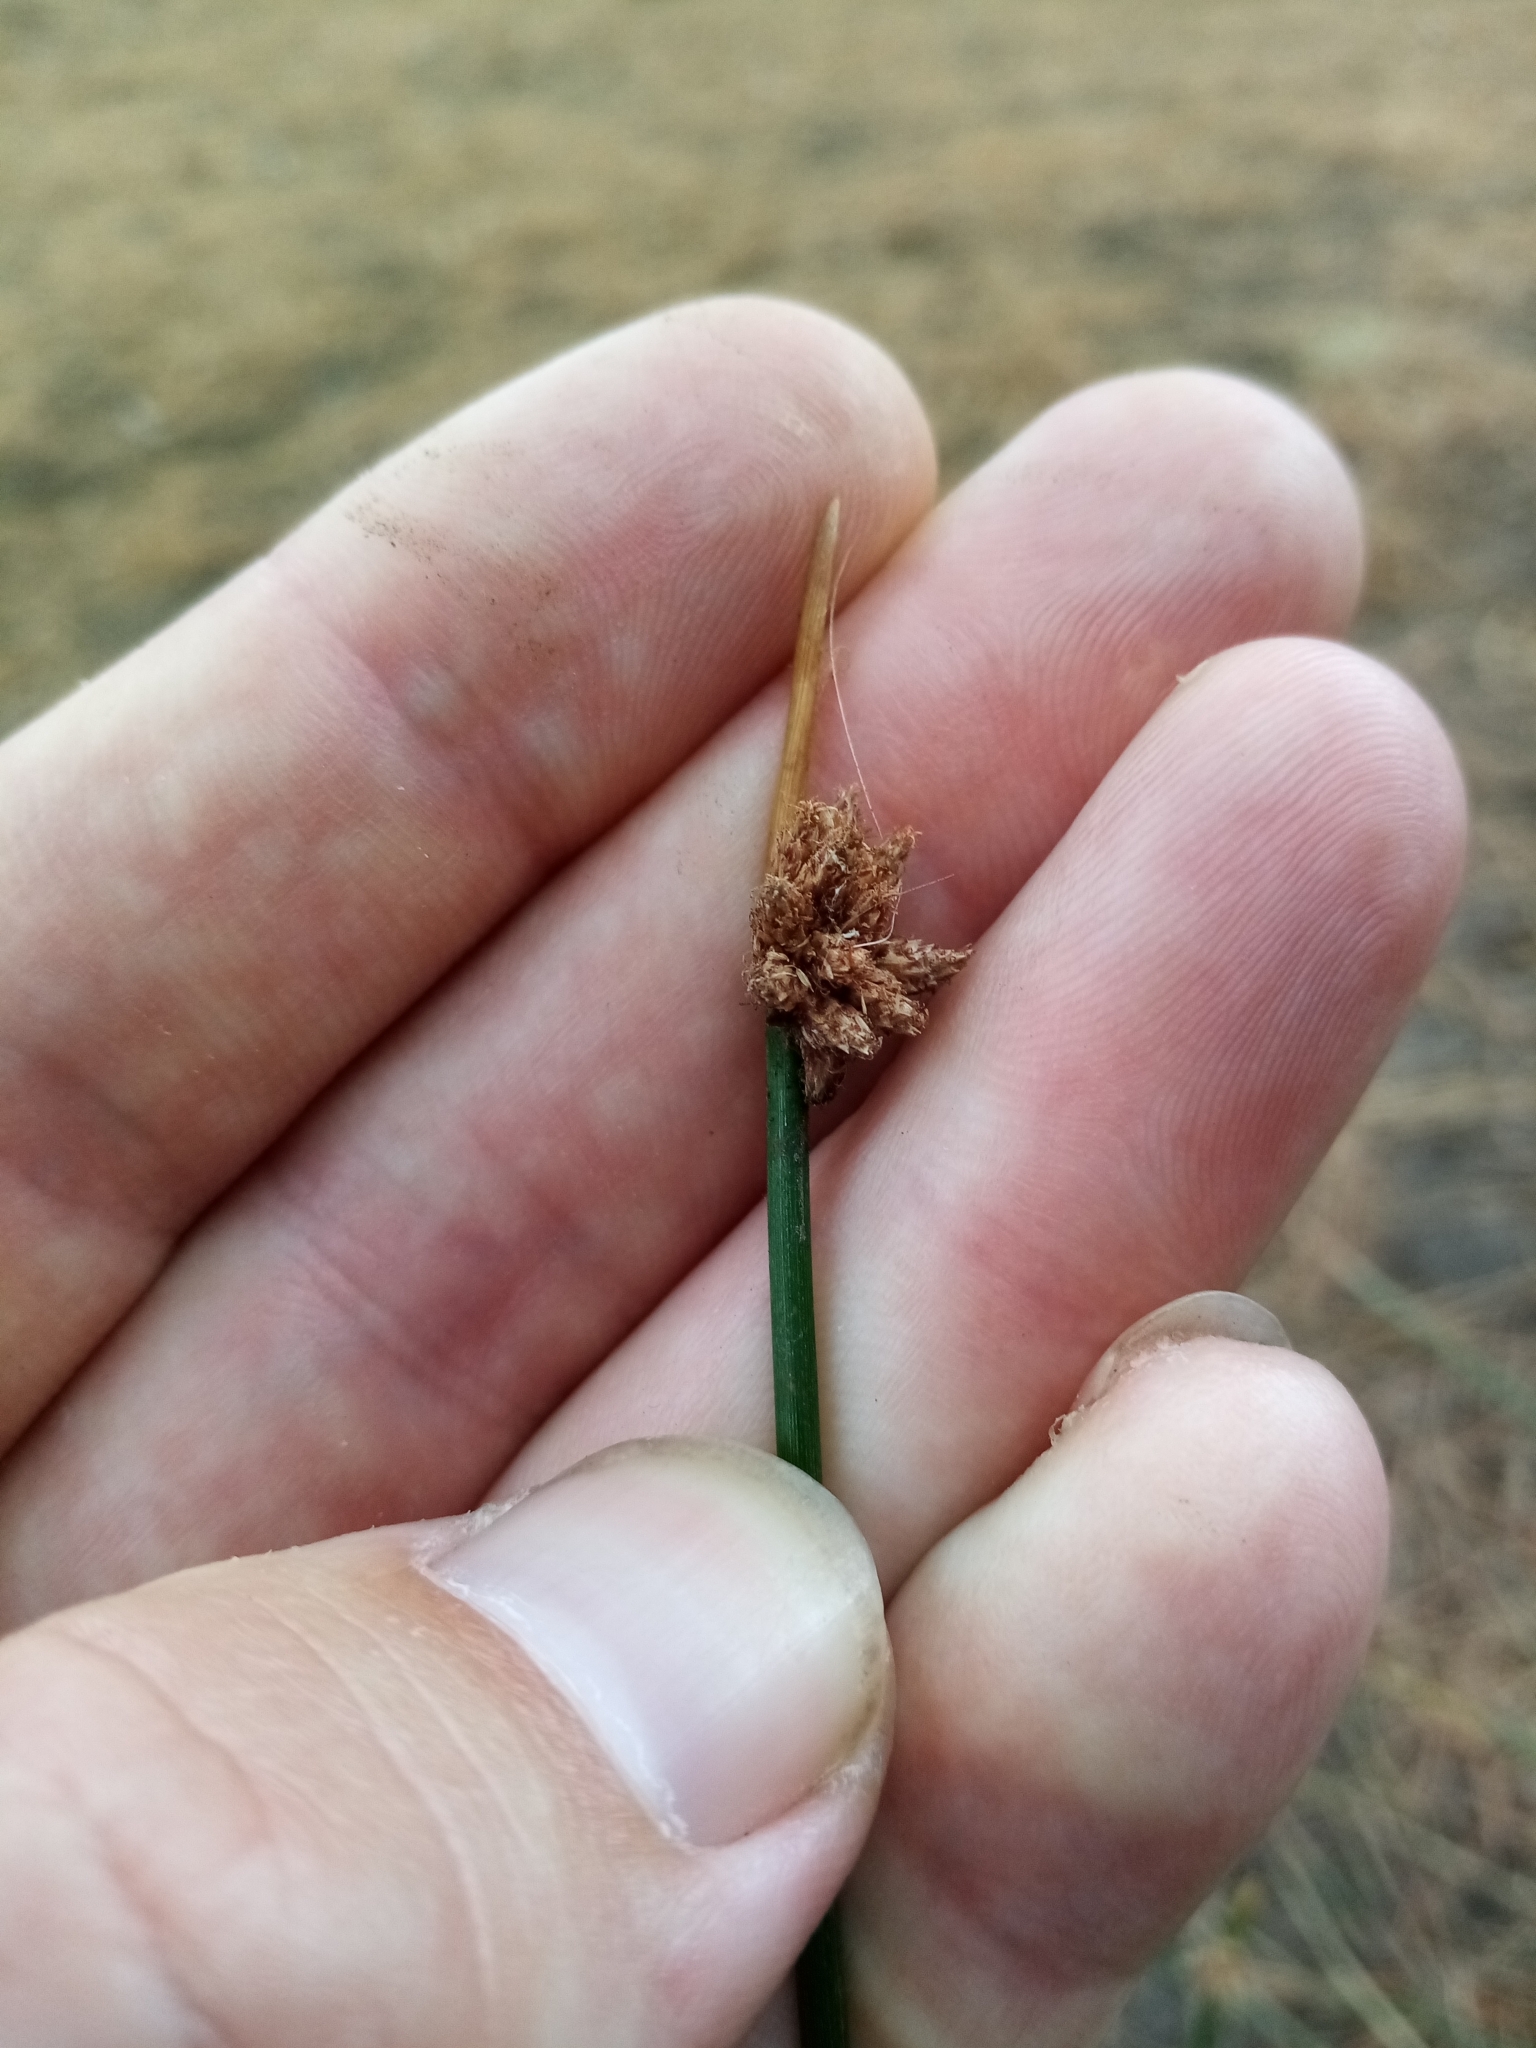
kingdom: Plantae
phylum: Tracheophyta
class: Liliopsida
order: Poales
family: Cyperaceae
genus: Schoenoplectus
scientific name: Schoenoplectus pungens
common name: Sharp club-rush
